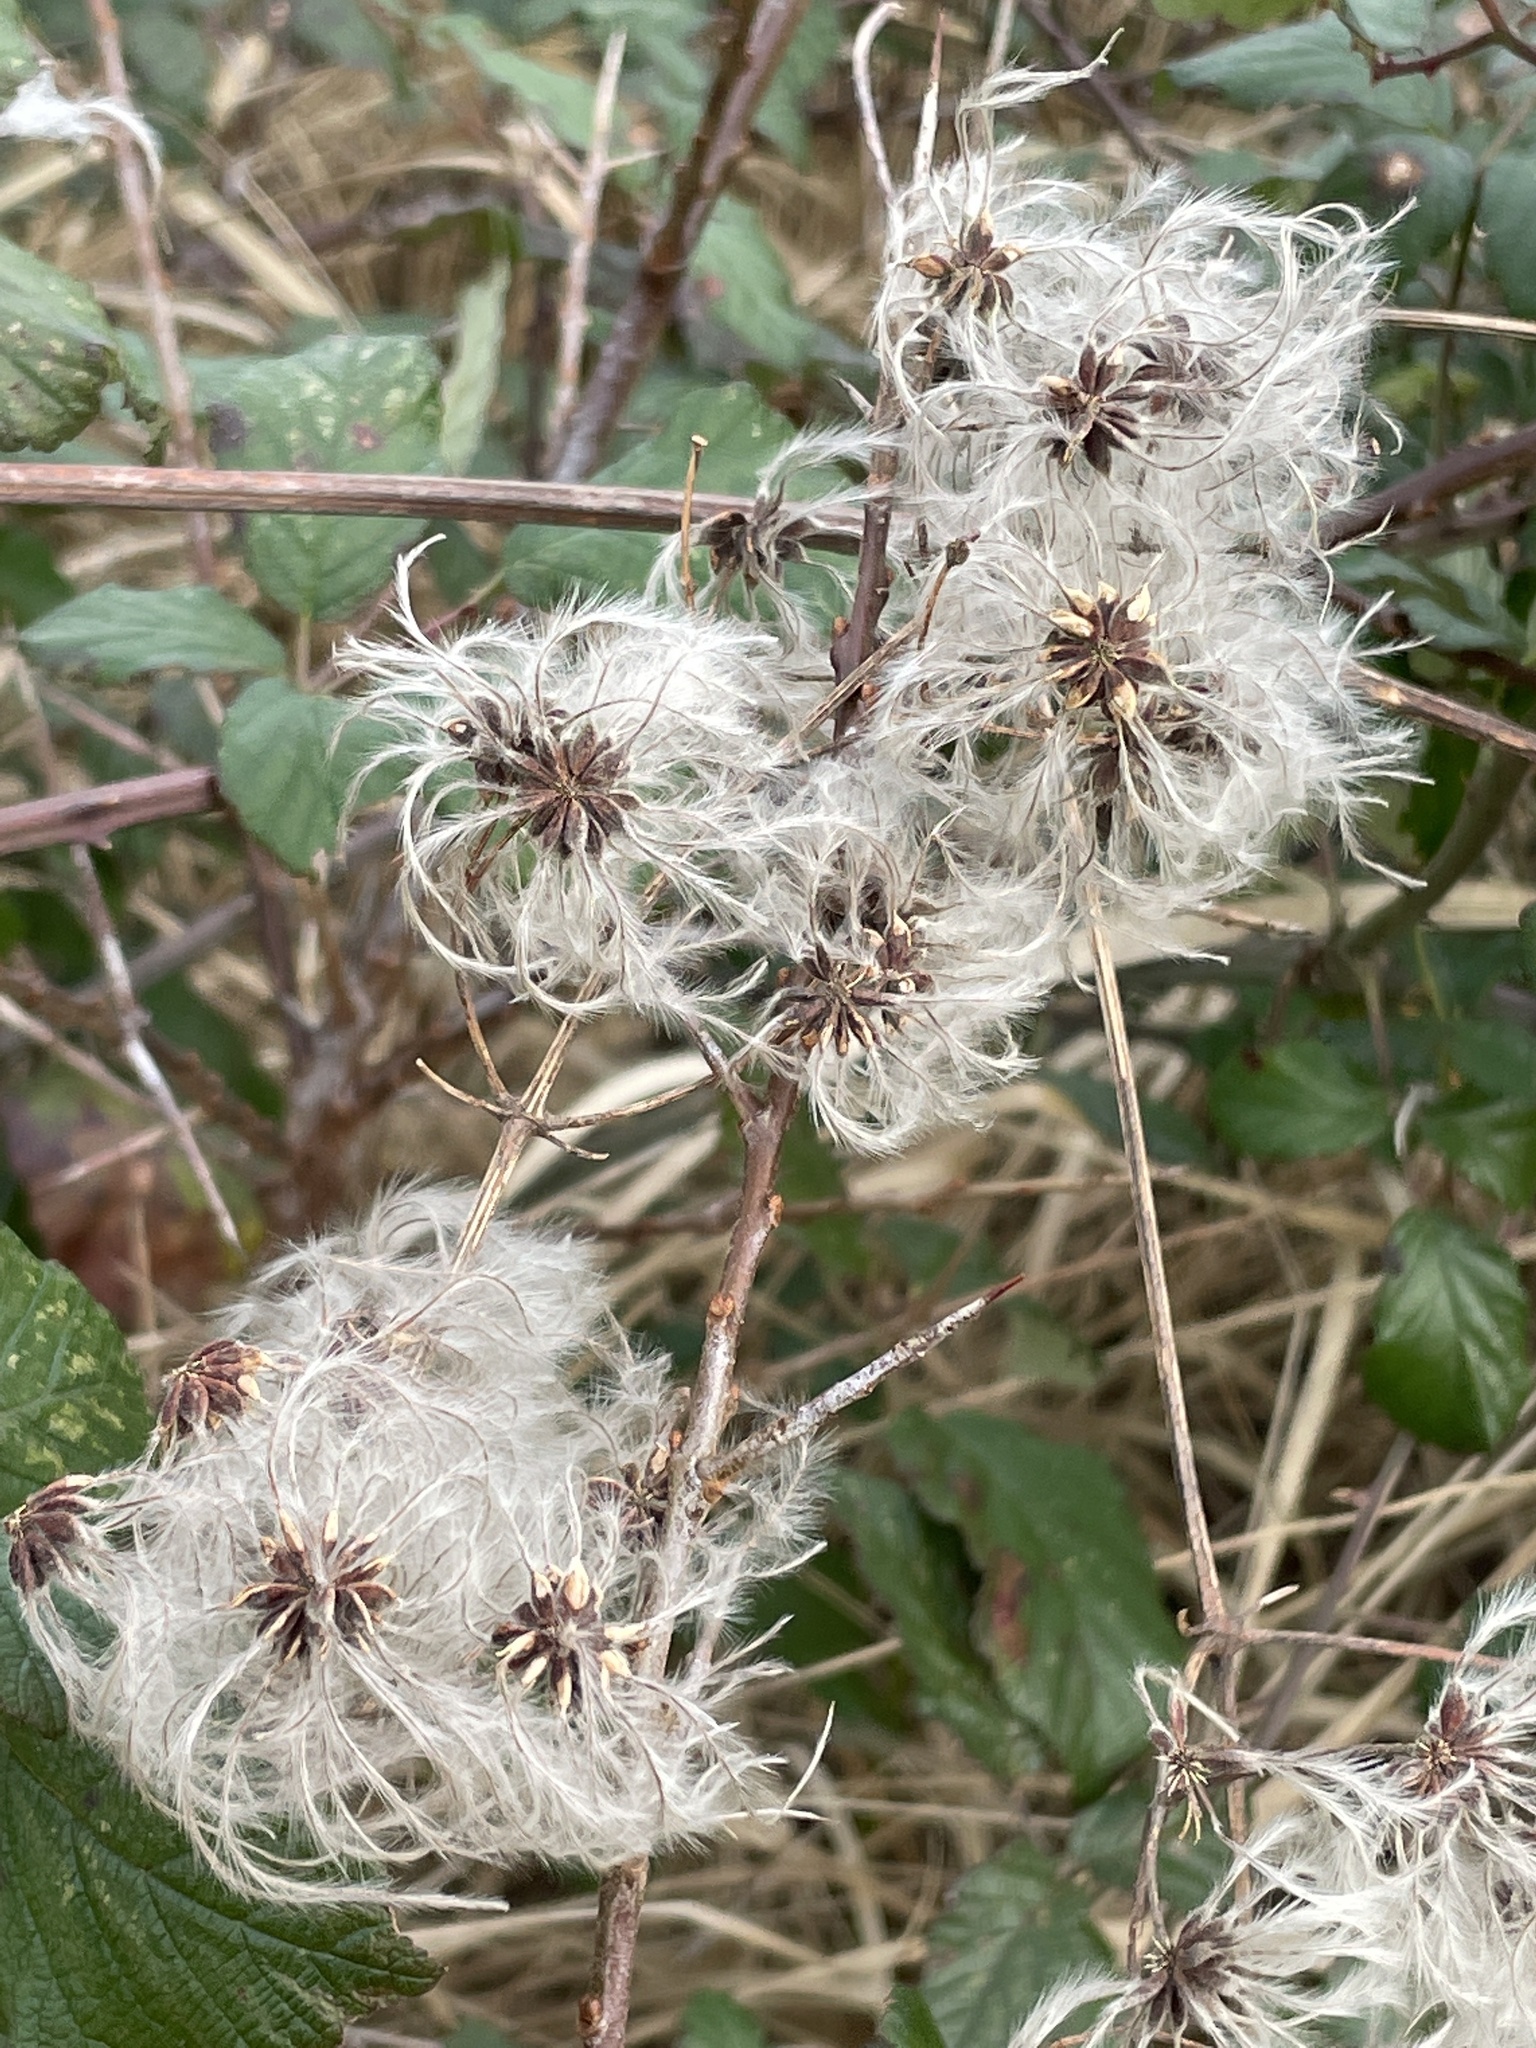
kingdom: Plantae
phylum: Tracheophyta
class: Magnoliopsida
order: Ranunculales
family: Ranunculaceae
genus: Clematis
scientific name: Clematis vitalba
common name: Evergreen clematis
